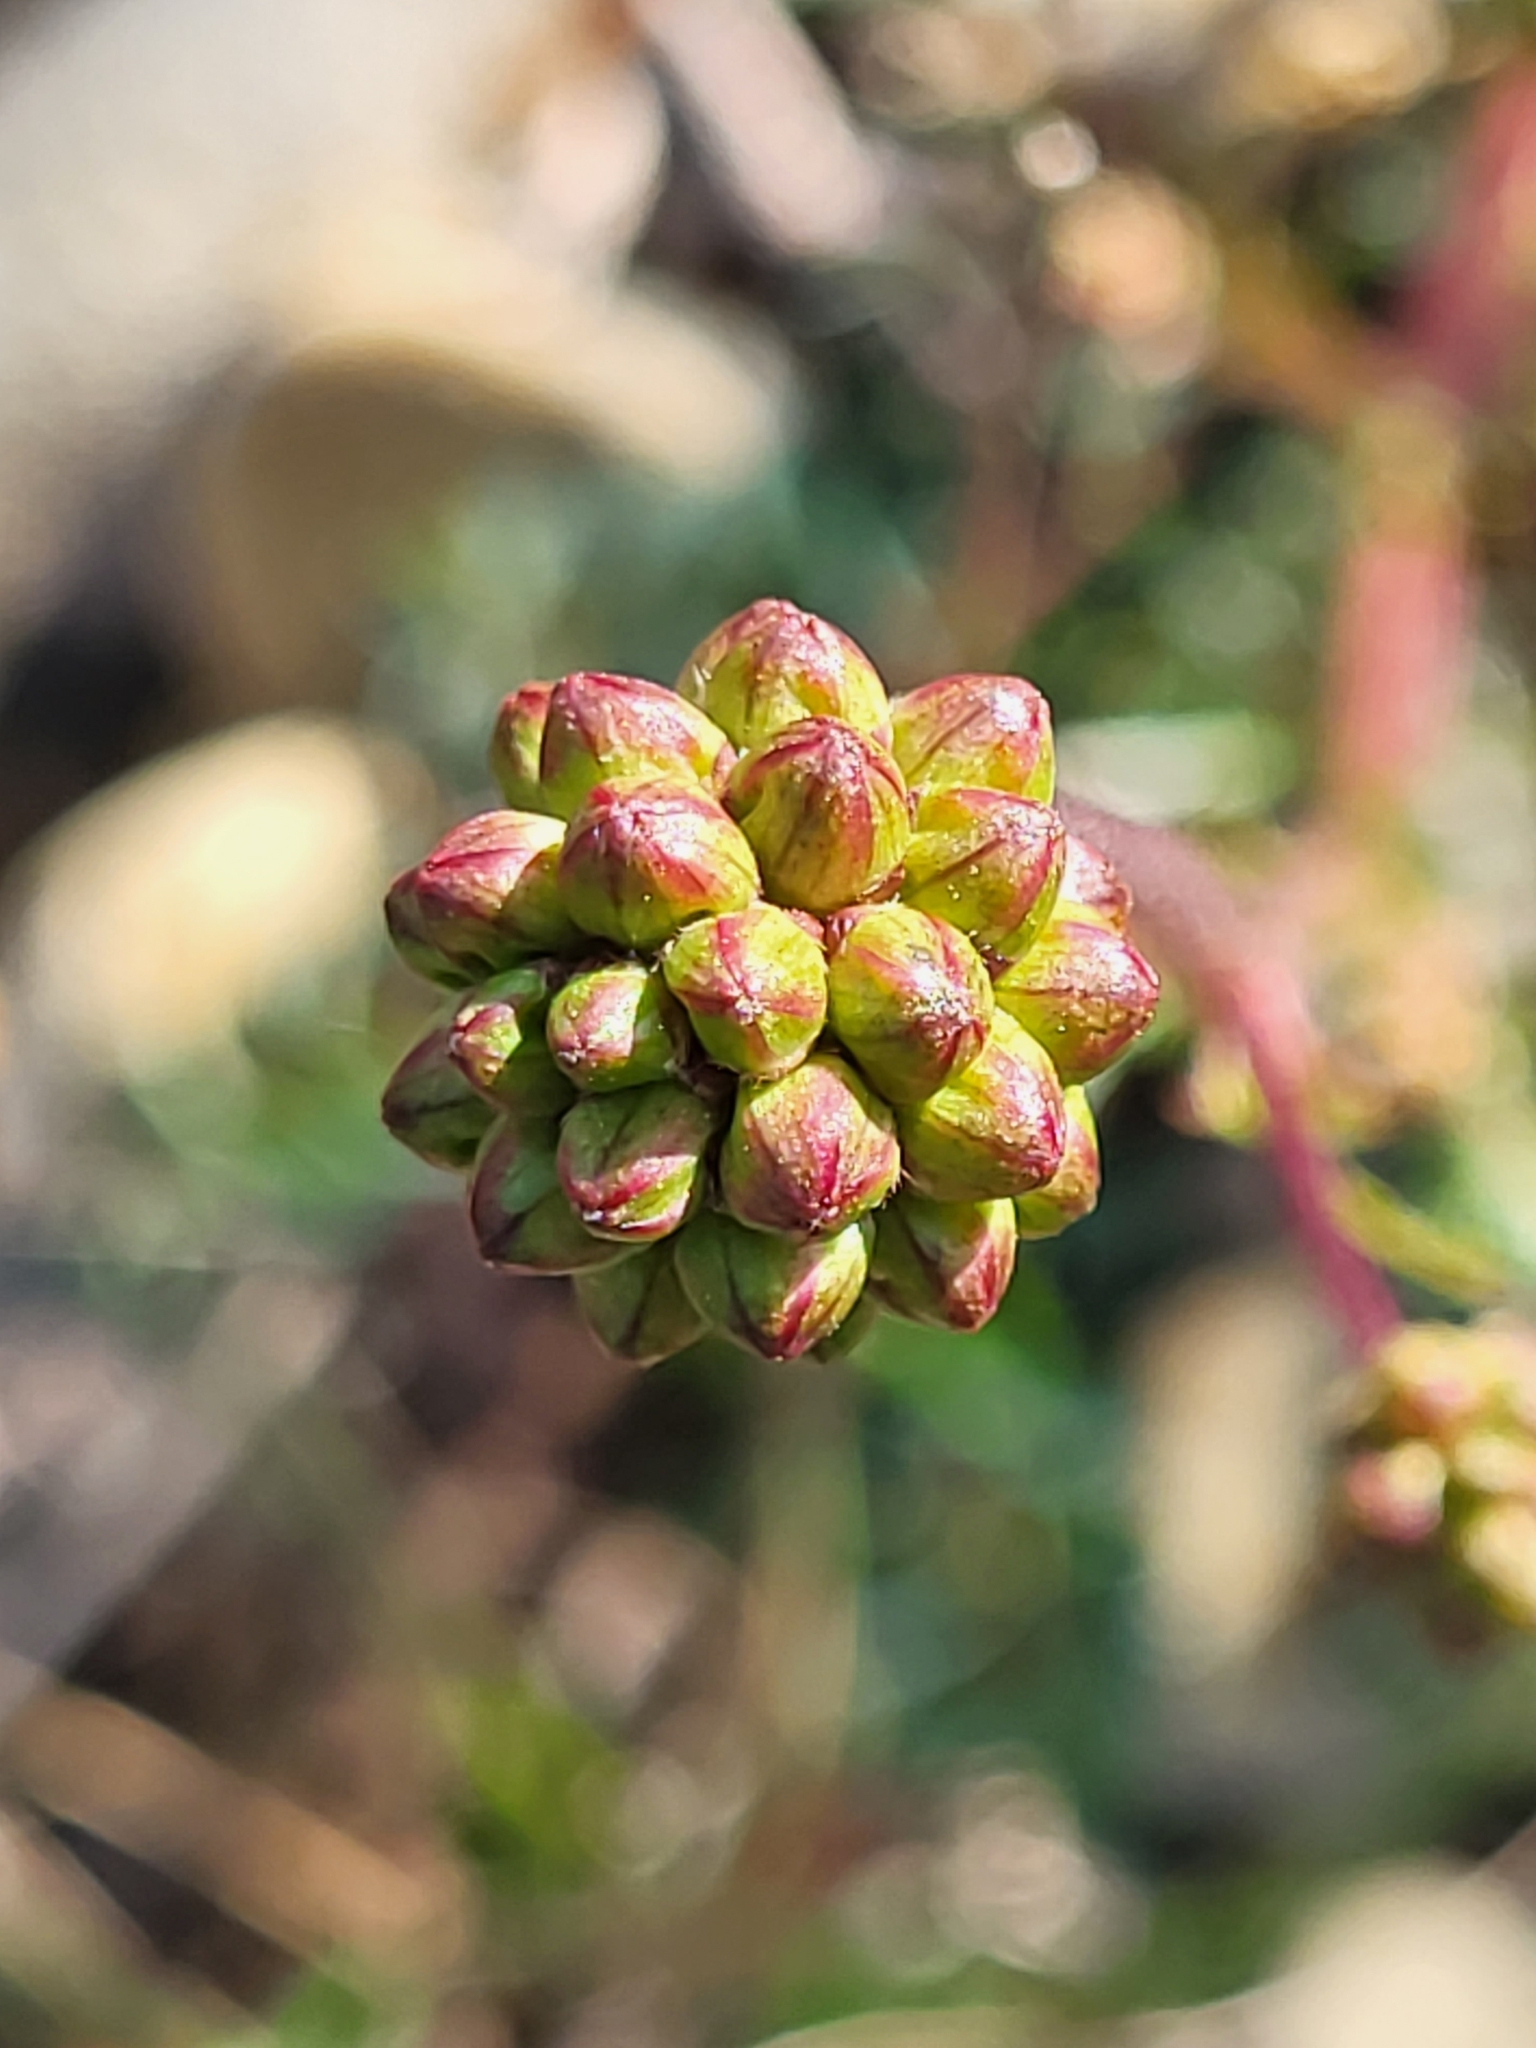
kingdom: Plantae
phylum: Tracheophyta
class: Magnoliopsida
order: Rosales
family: Rosaceae
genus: Poterium
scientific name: Poterium sanguisorba
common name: Salad burnet
